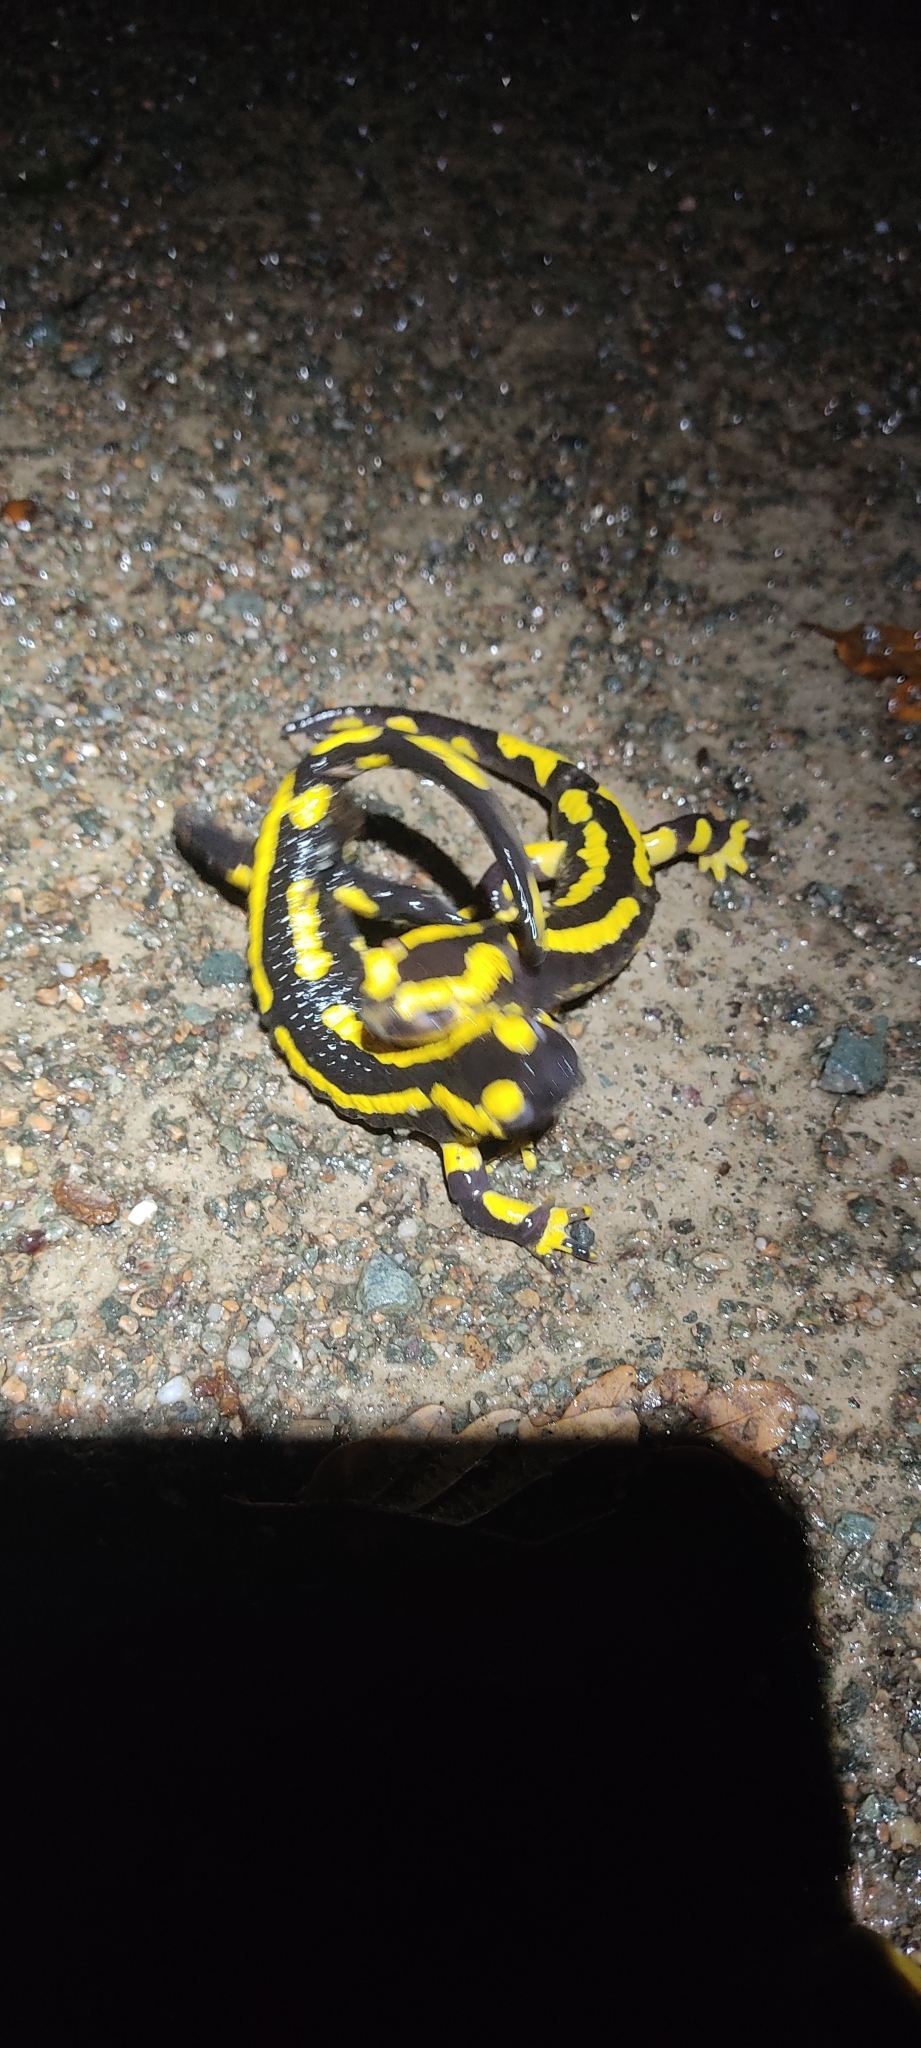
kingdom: Animalia
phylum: Chordata
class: Amphibia
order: Caudata
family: Salamandridae
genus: Salamandra
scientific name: Salamandra salamandra
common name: Fire salamander
